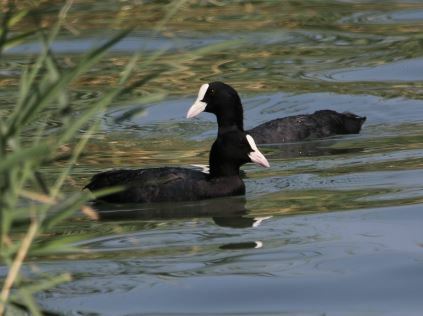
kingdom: Animalia
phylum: Chordata
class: Aves
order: Gruiformes
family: Rallidae
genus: Fulica
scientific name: Fulica atra
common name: Eurasian coot
